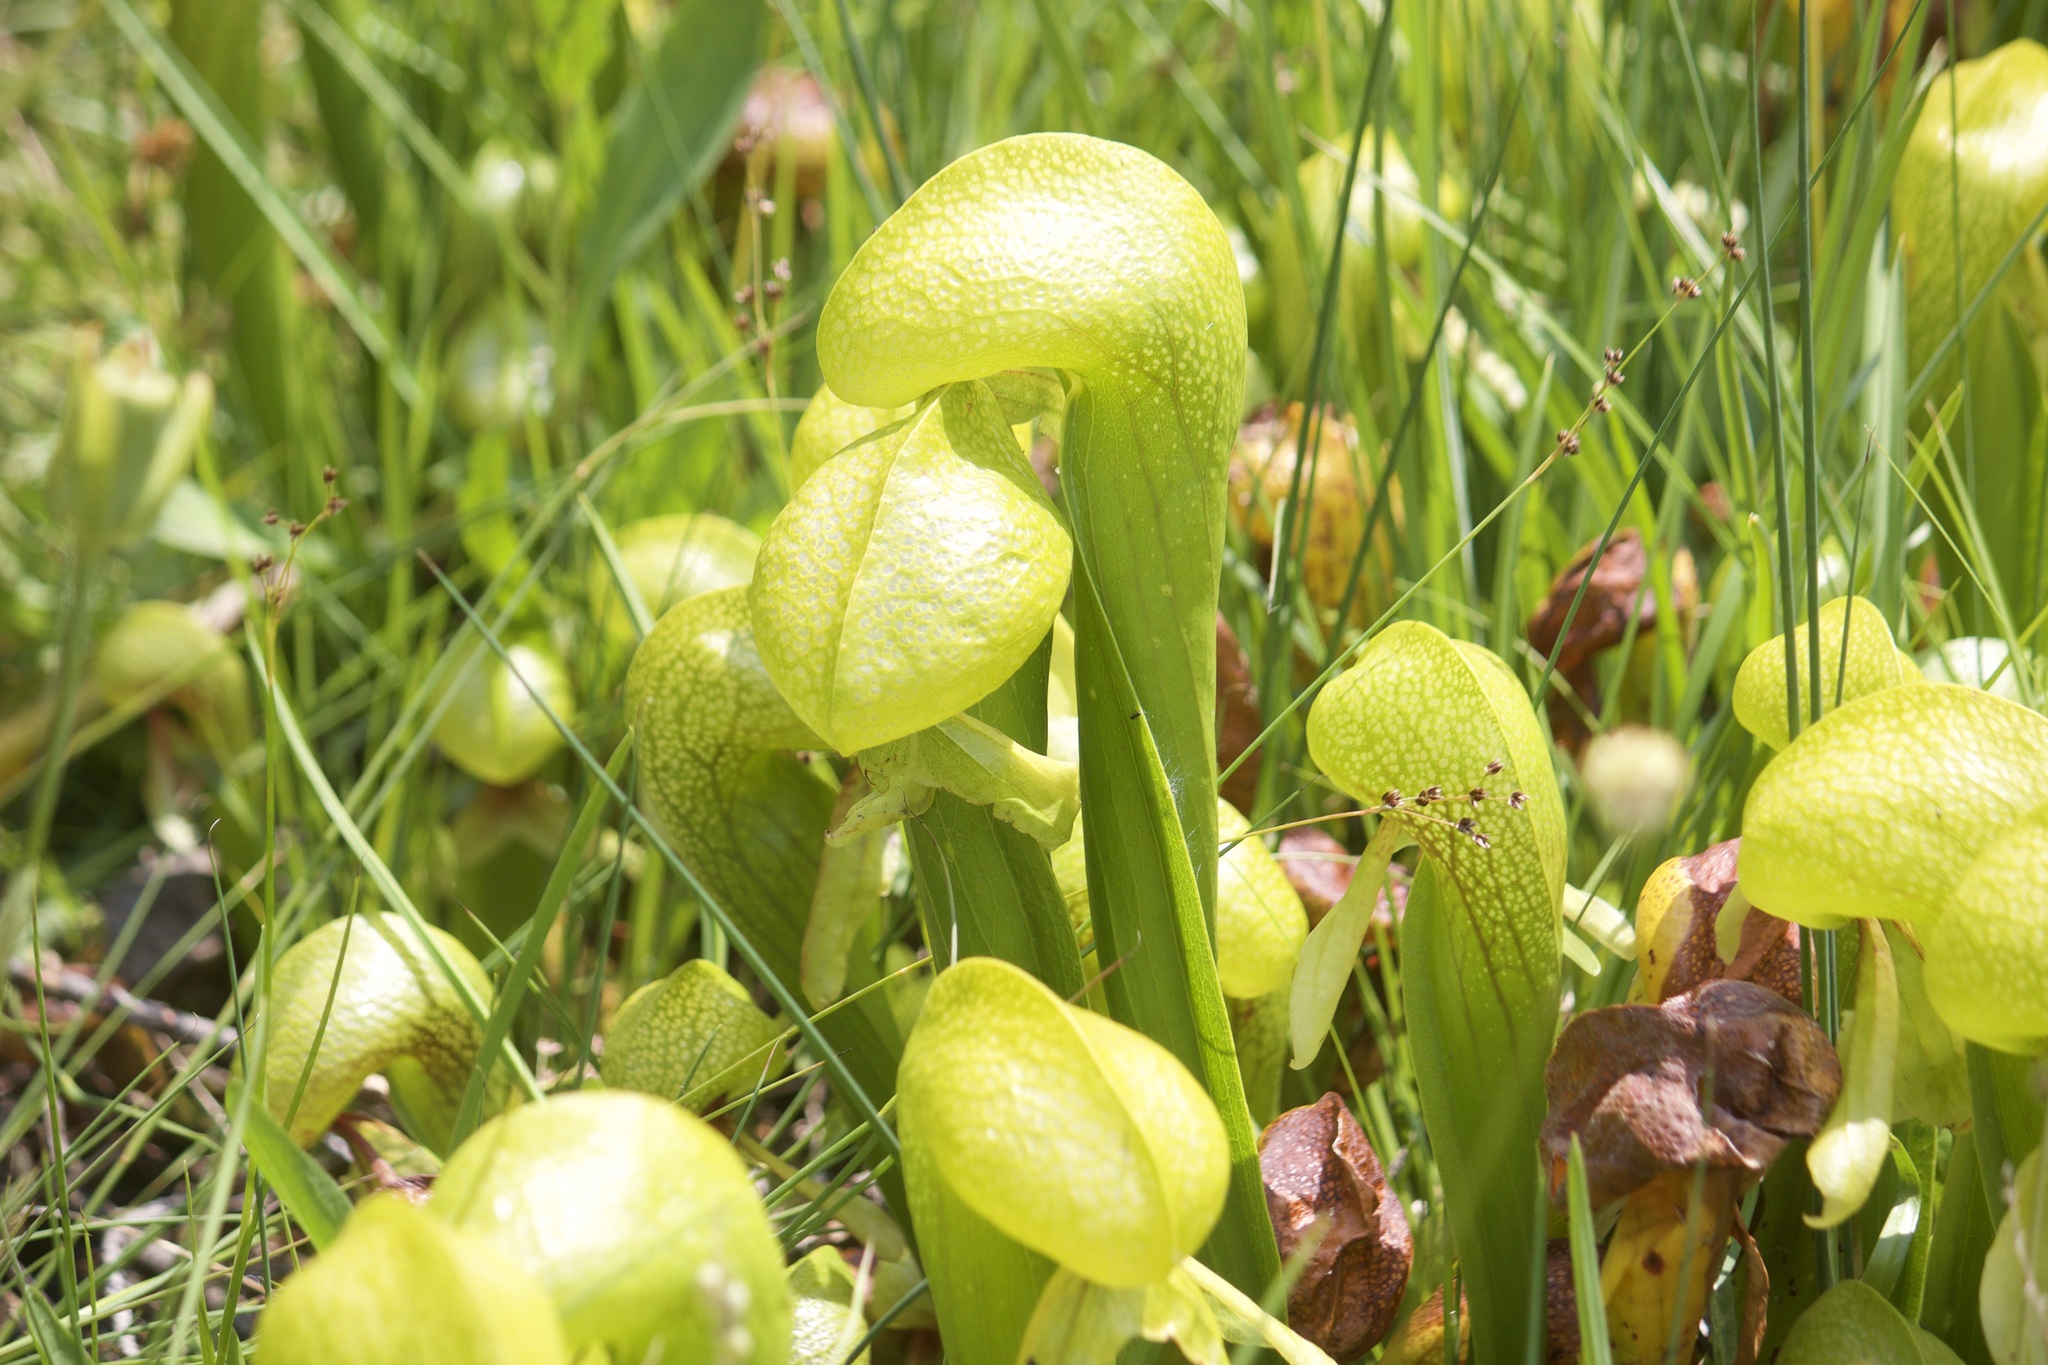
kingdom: Plantae
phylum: Tracheophyta
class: Magnoliopsida
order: Ericales
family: Sarraceniaceae
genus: Darlingtonia
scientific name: Darlingtonia californica
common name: California pitcher plant
